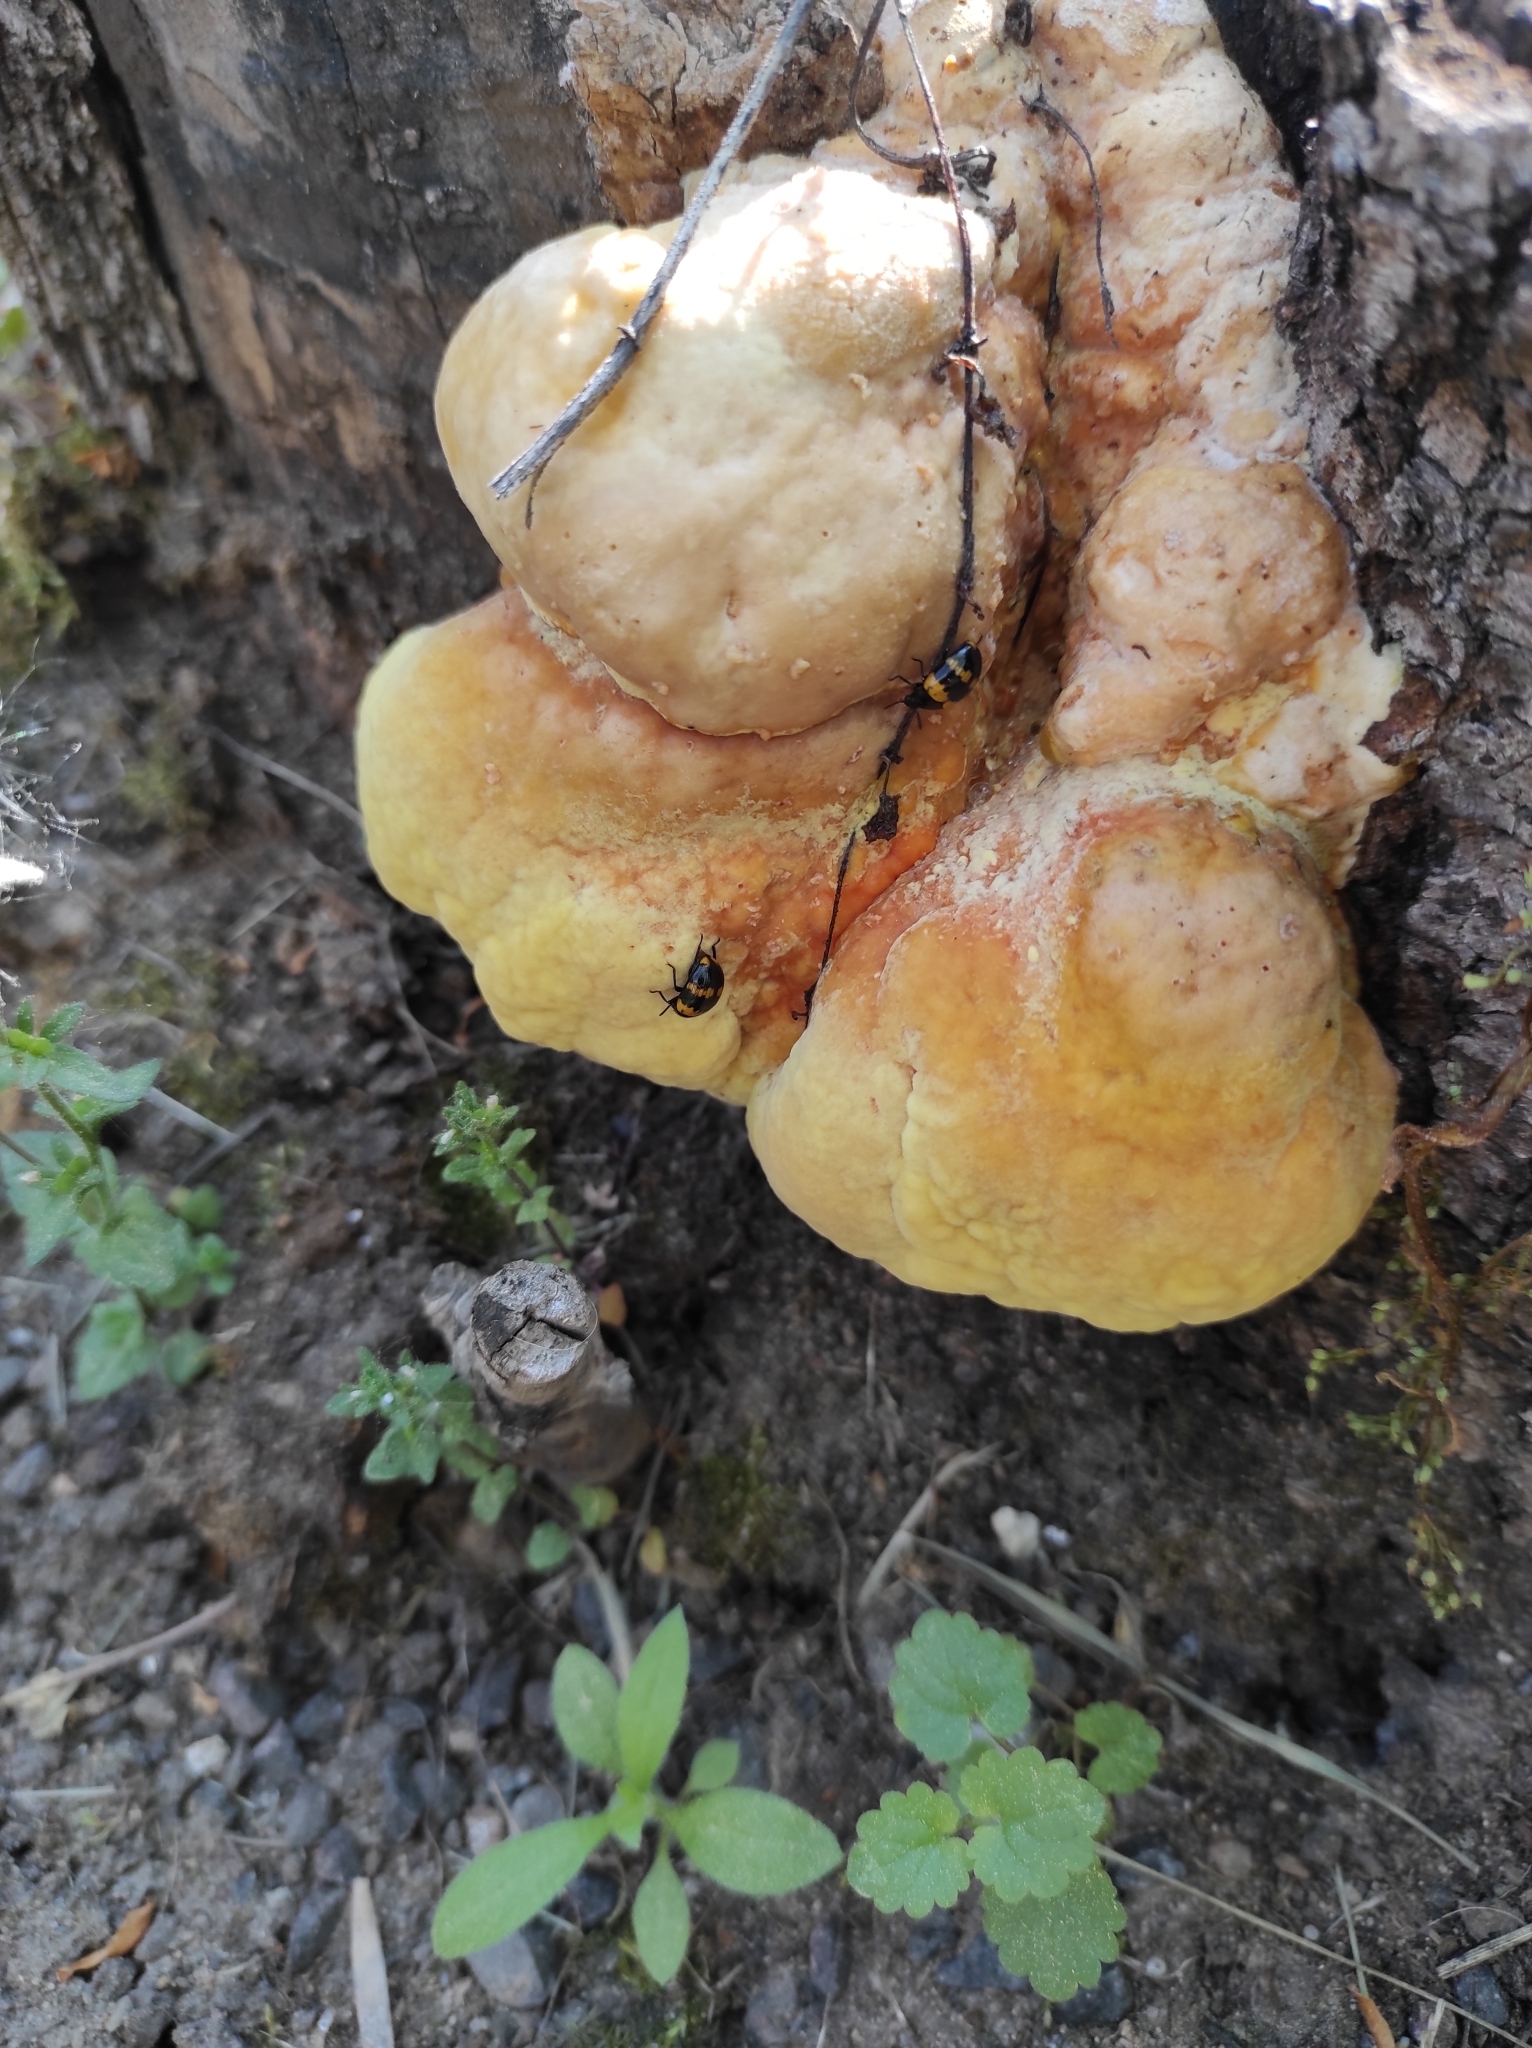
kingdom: Animalia
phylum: Arthropoda
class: Insecta
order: Coleoptera
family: Tenebrionidae
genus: Diaperis
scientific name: Diaperis boleti
